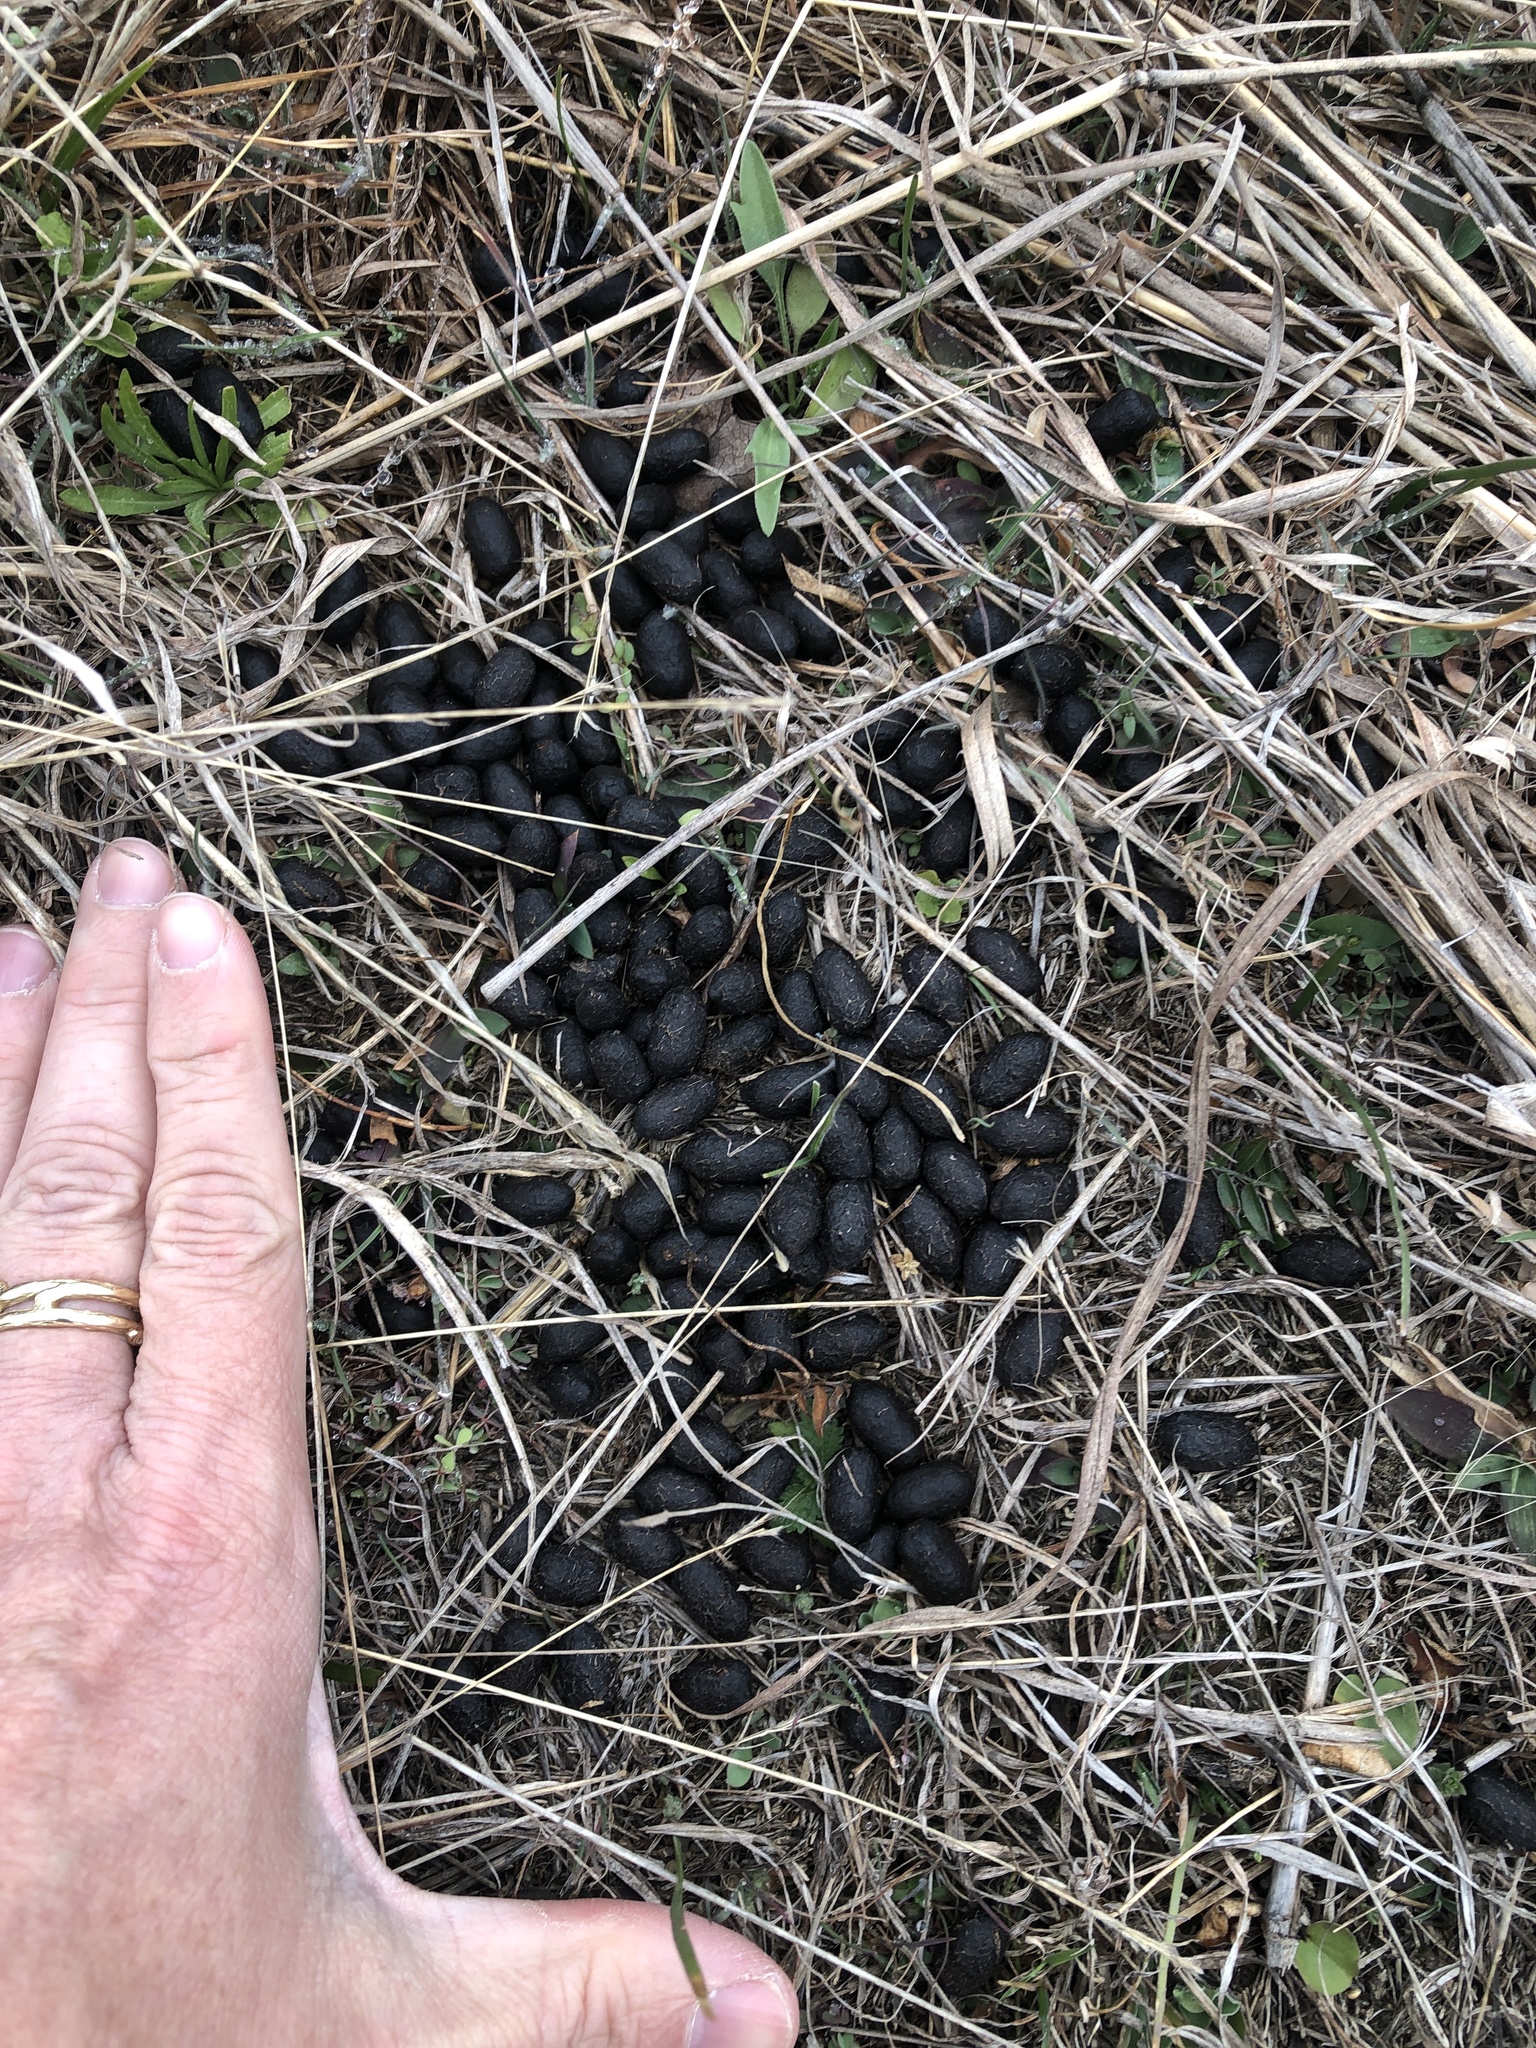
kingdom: Animalia
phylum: Chordata
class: Mammalia
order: Artiodactyla
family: Cervidae
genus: Odocoileus
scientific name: Odocoileus virginianus
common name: White-tailed deer
